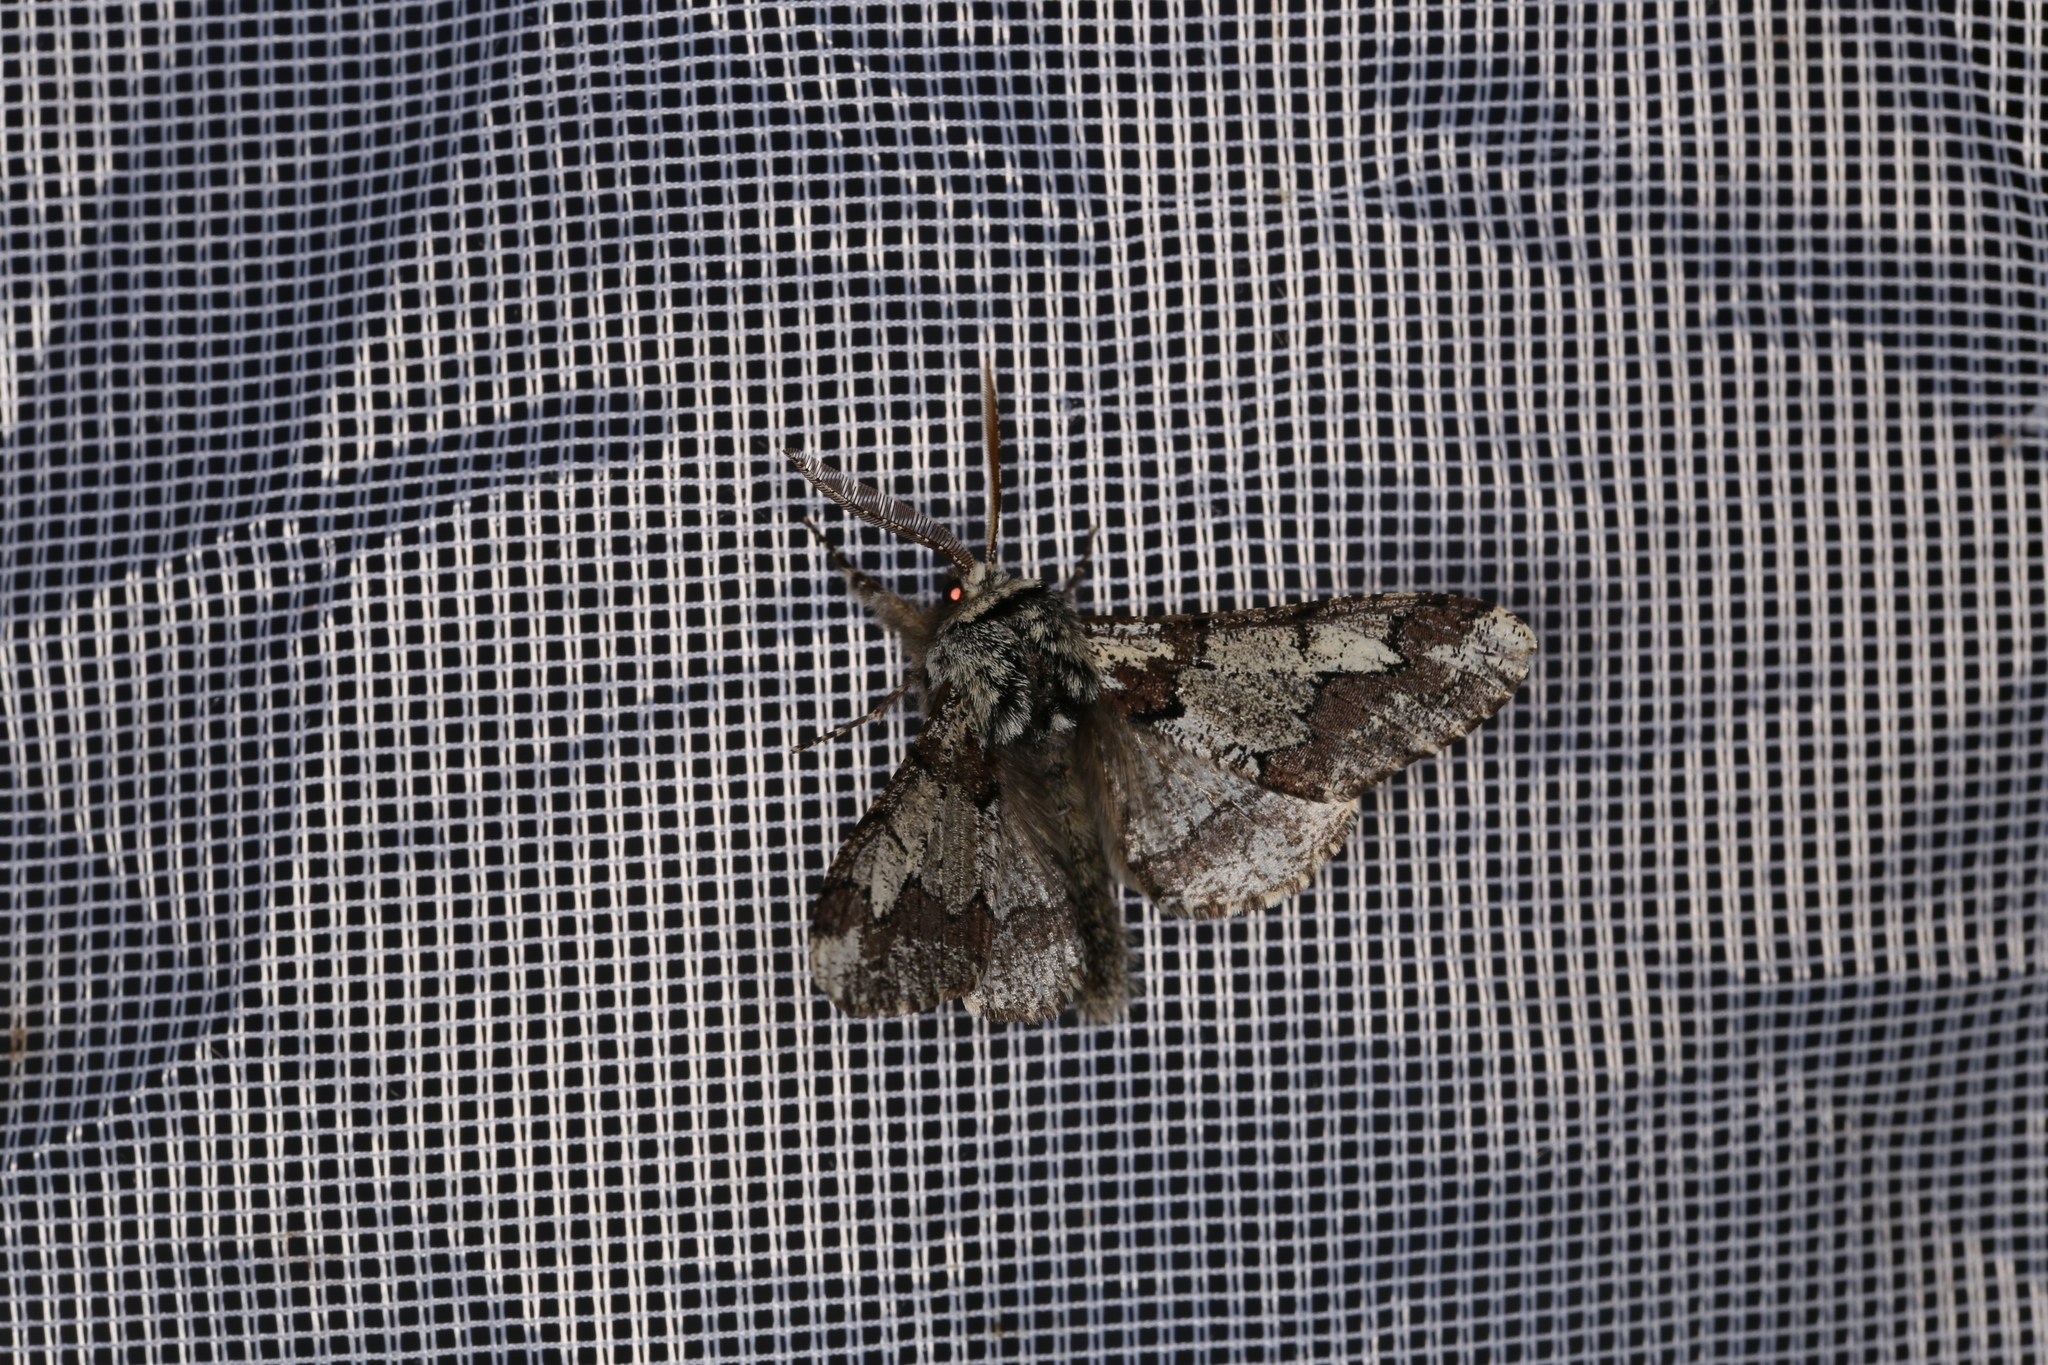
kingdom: Animalia
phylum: Arthropoda
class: Insecta
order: Lepidoptera
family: Geometridae
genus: Biston
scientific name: Biston strataria
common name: Oak beauty
